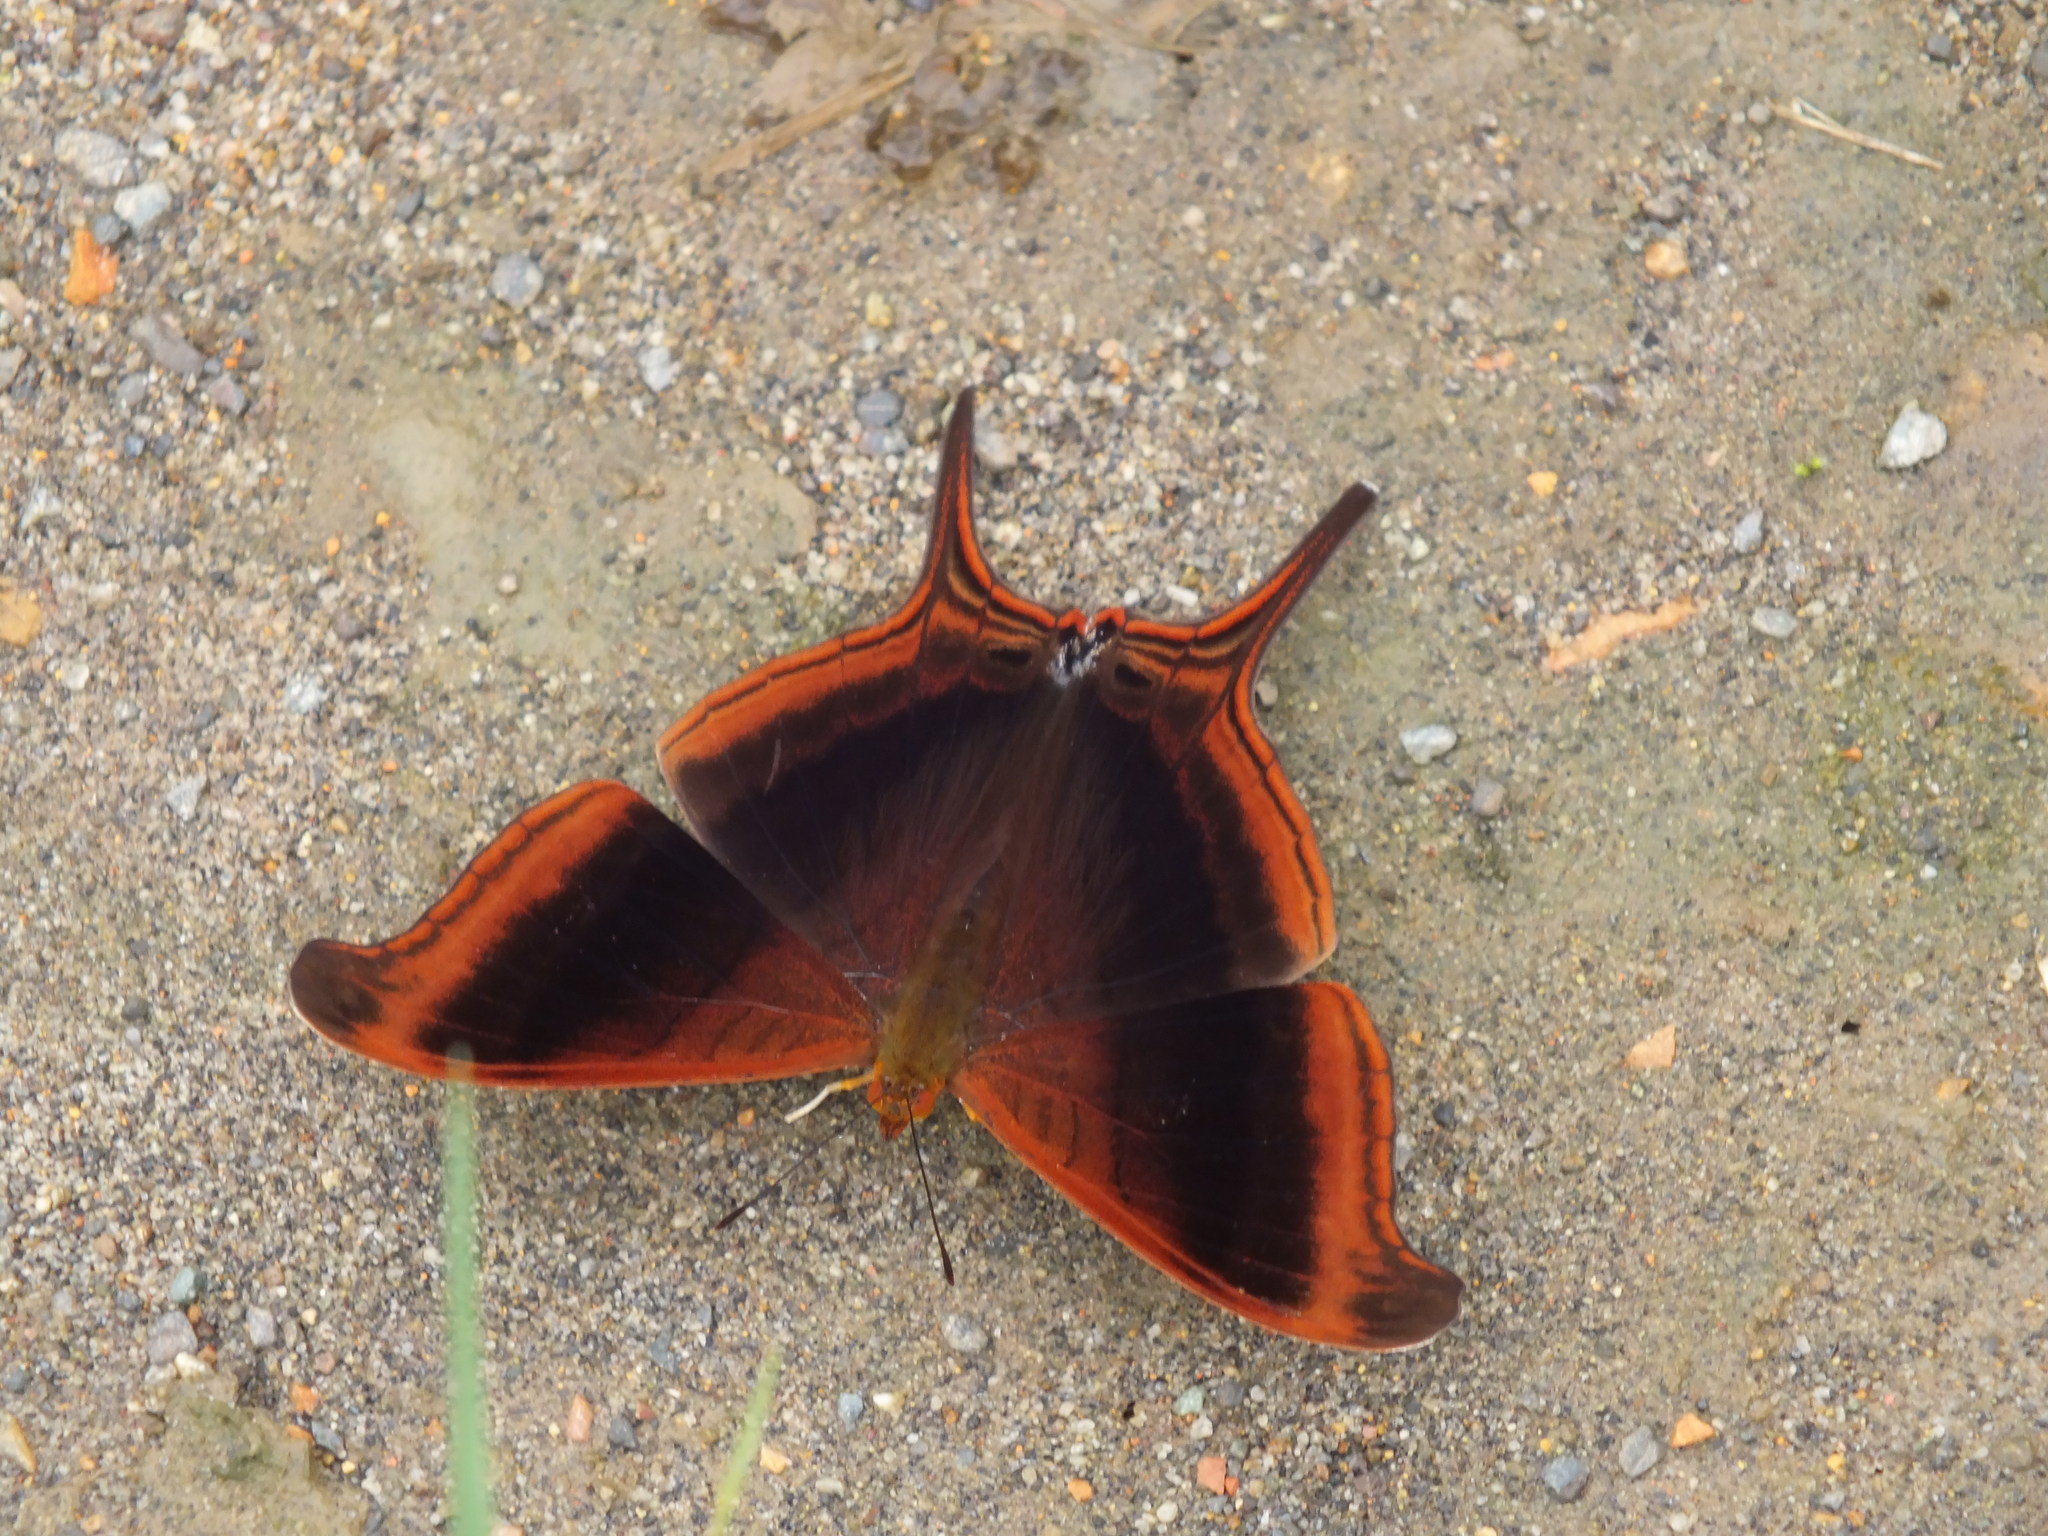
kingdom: Animalia
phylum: Arthropoda
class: Insecta
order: Lepidoptera
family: Nymphalidae
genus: Marpesia
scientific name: Marpesia zerynthia
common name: Waiter daggerwing
